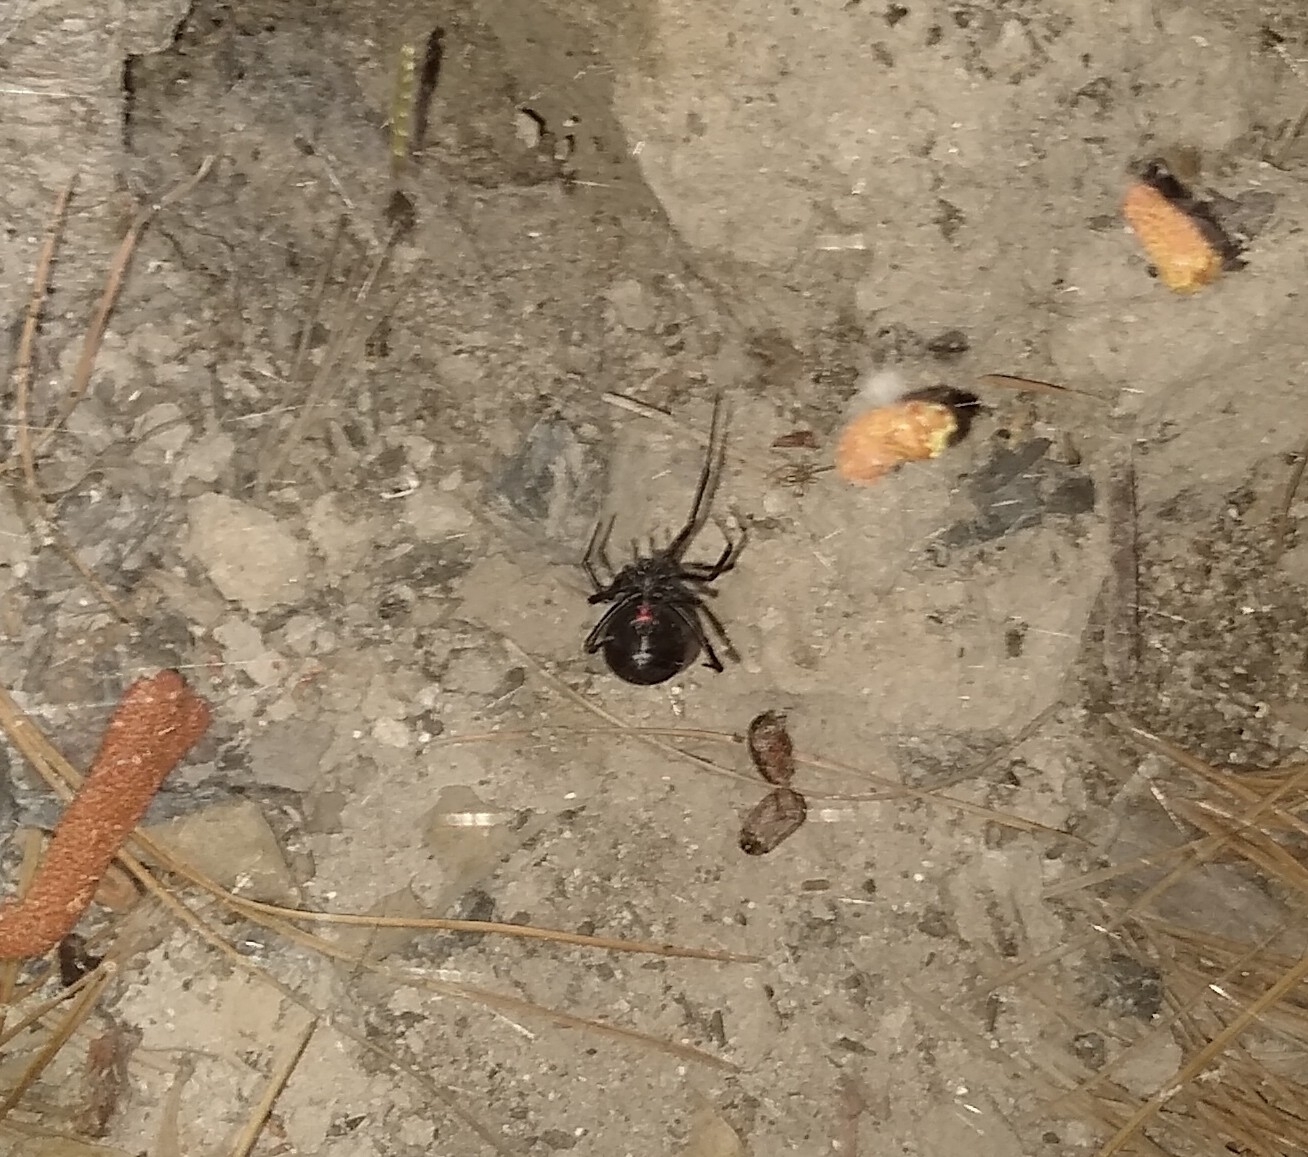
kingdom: Animalia
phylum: Arthropoda
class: Arachnida
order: Araneae
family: Theridiidae
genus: Latrodectus
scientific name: Latrodectus hesperus
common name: Western black widow
